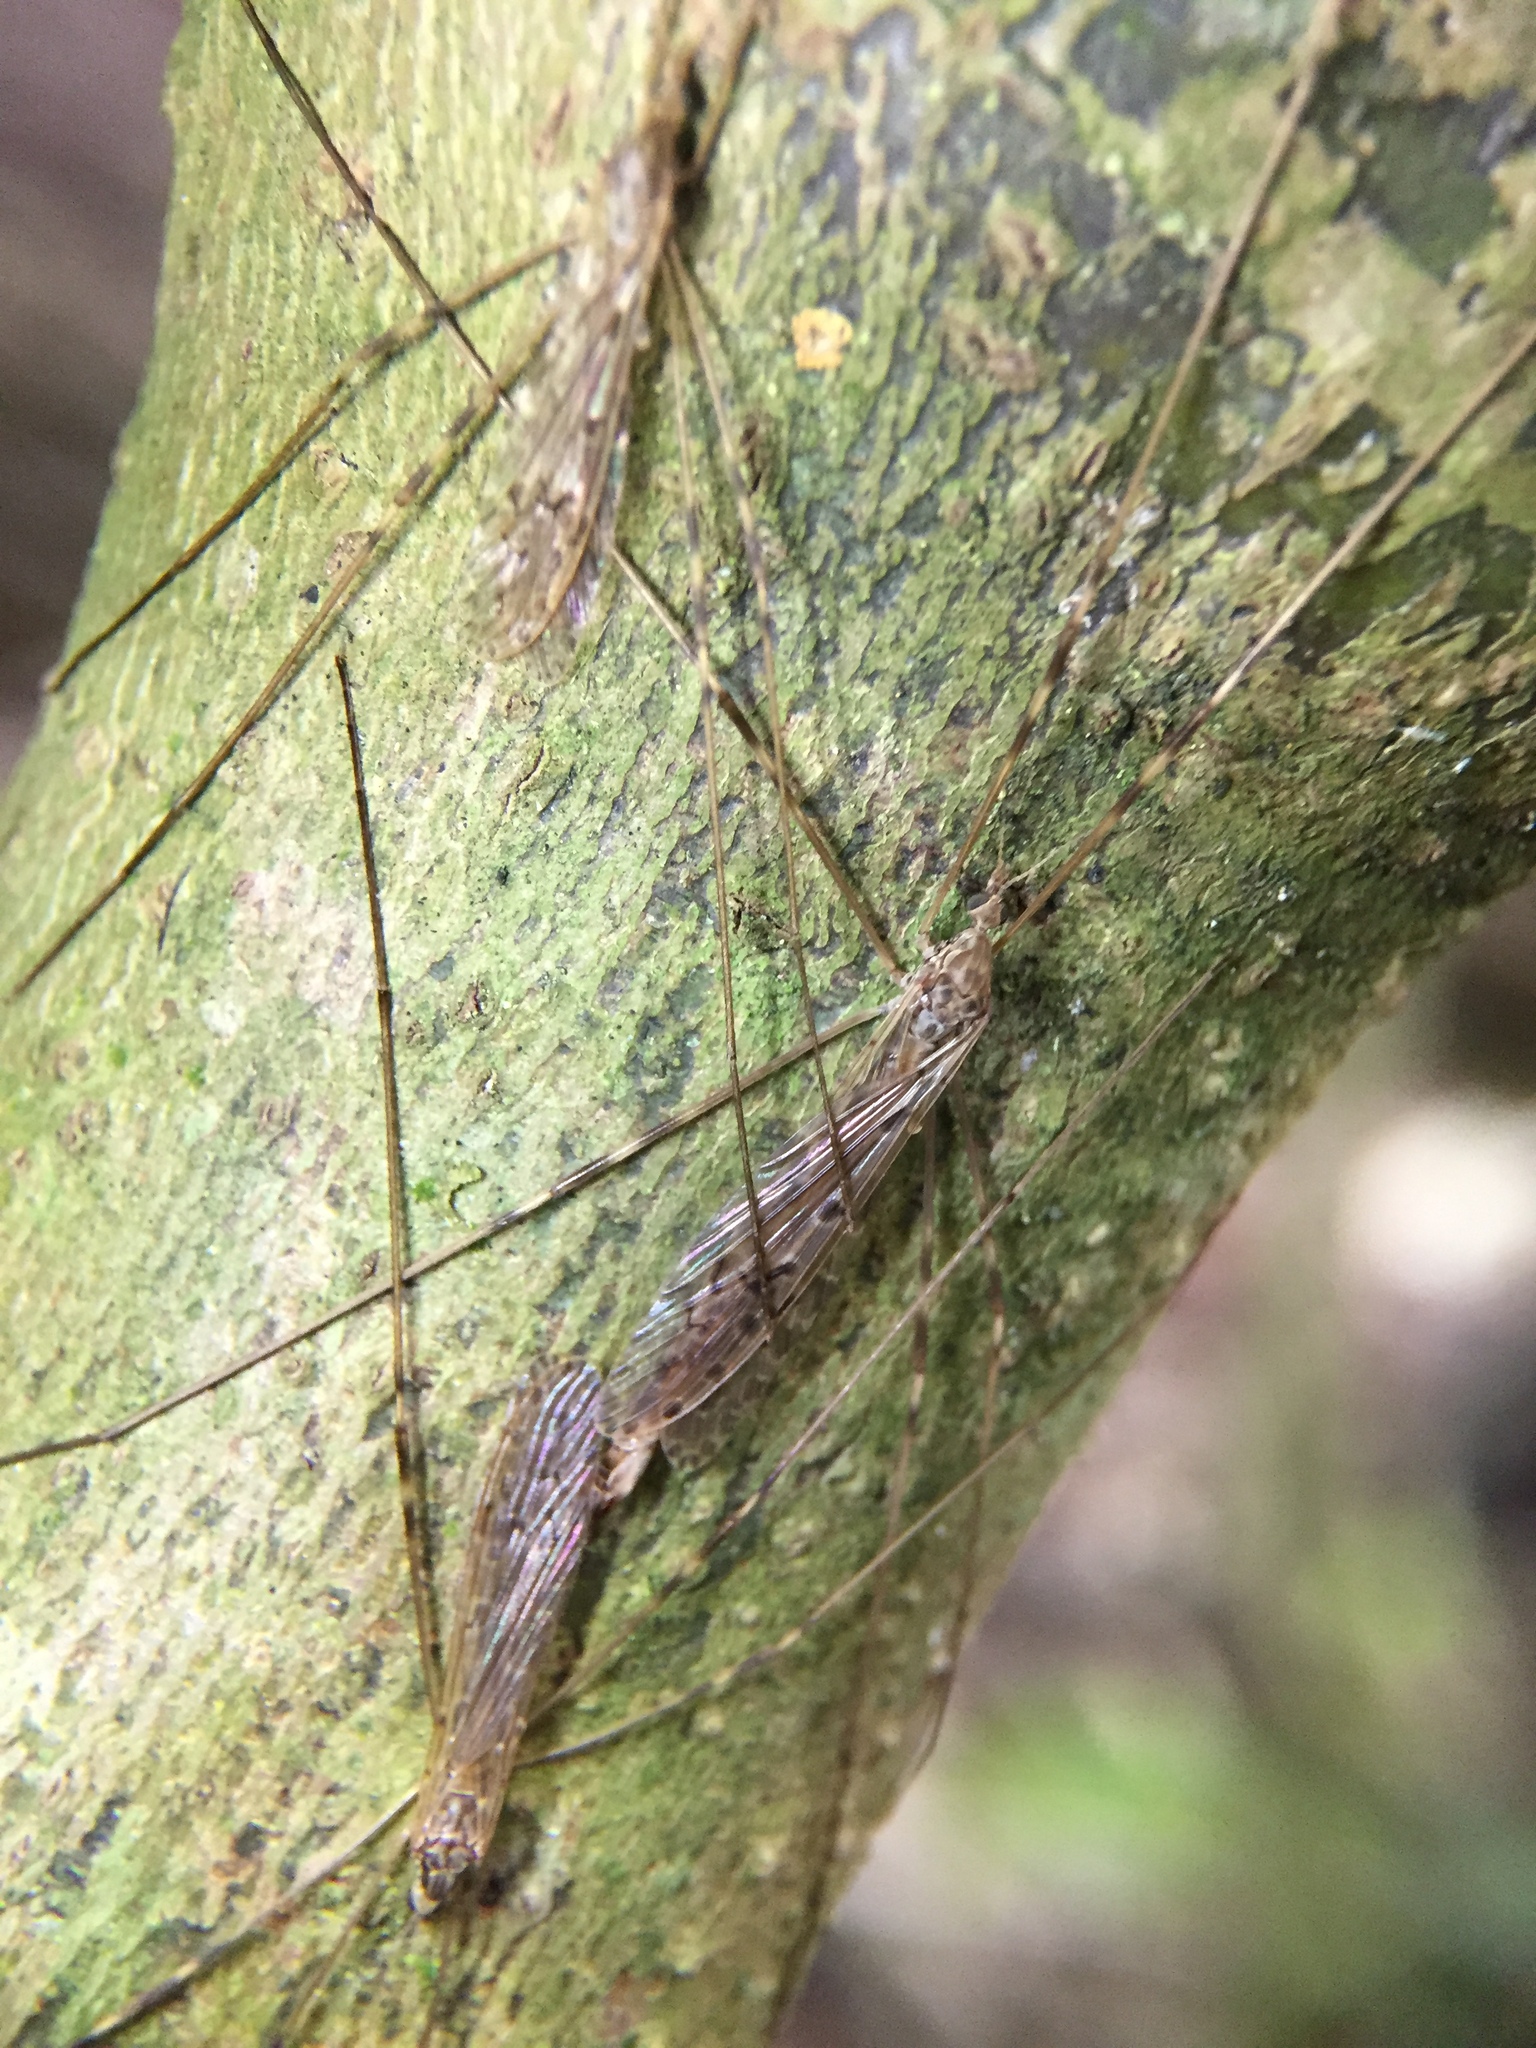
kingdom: Animalia
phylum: Arthropoda
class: Insecta
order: Diptera
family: Limoniidae
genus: Austrolimnophila
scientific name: Austrolimnophila crassipes
